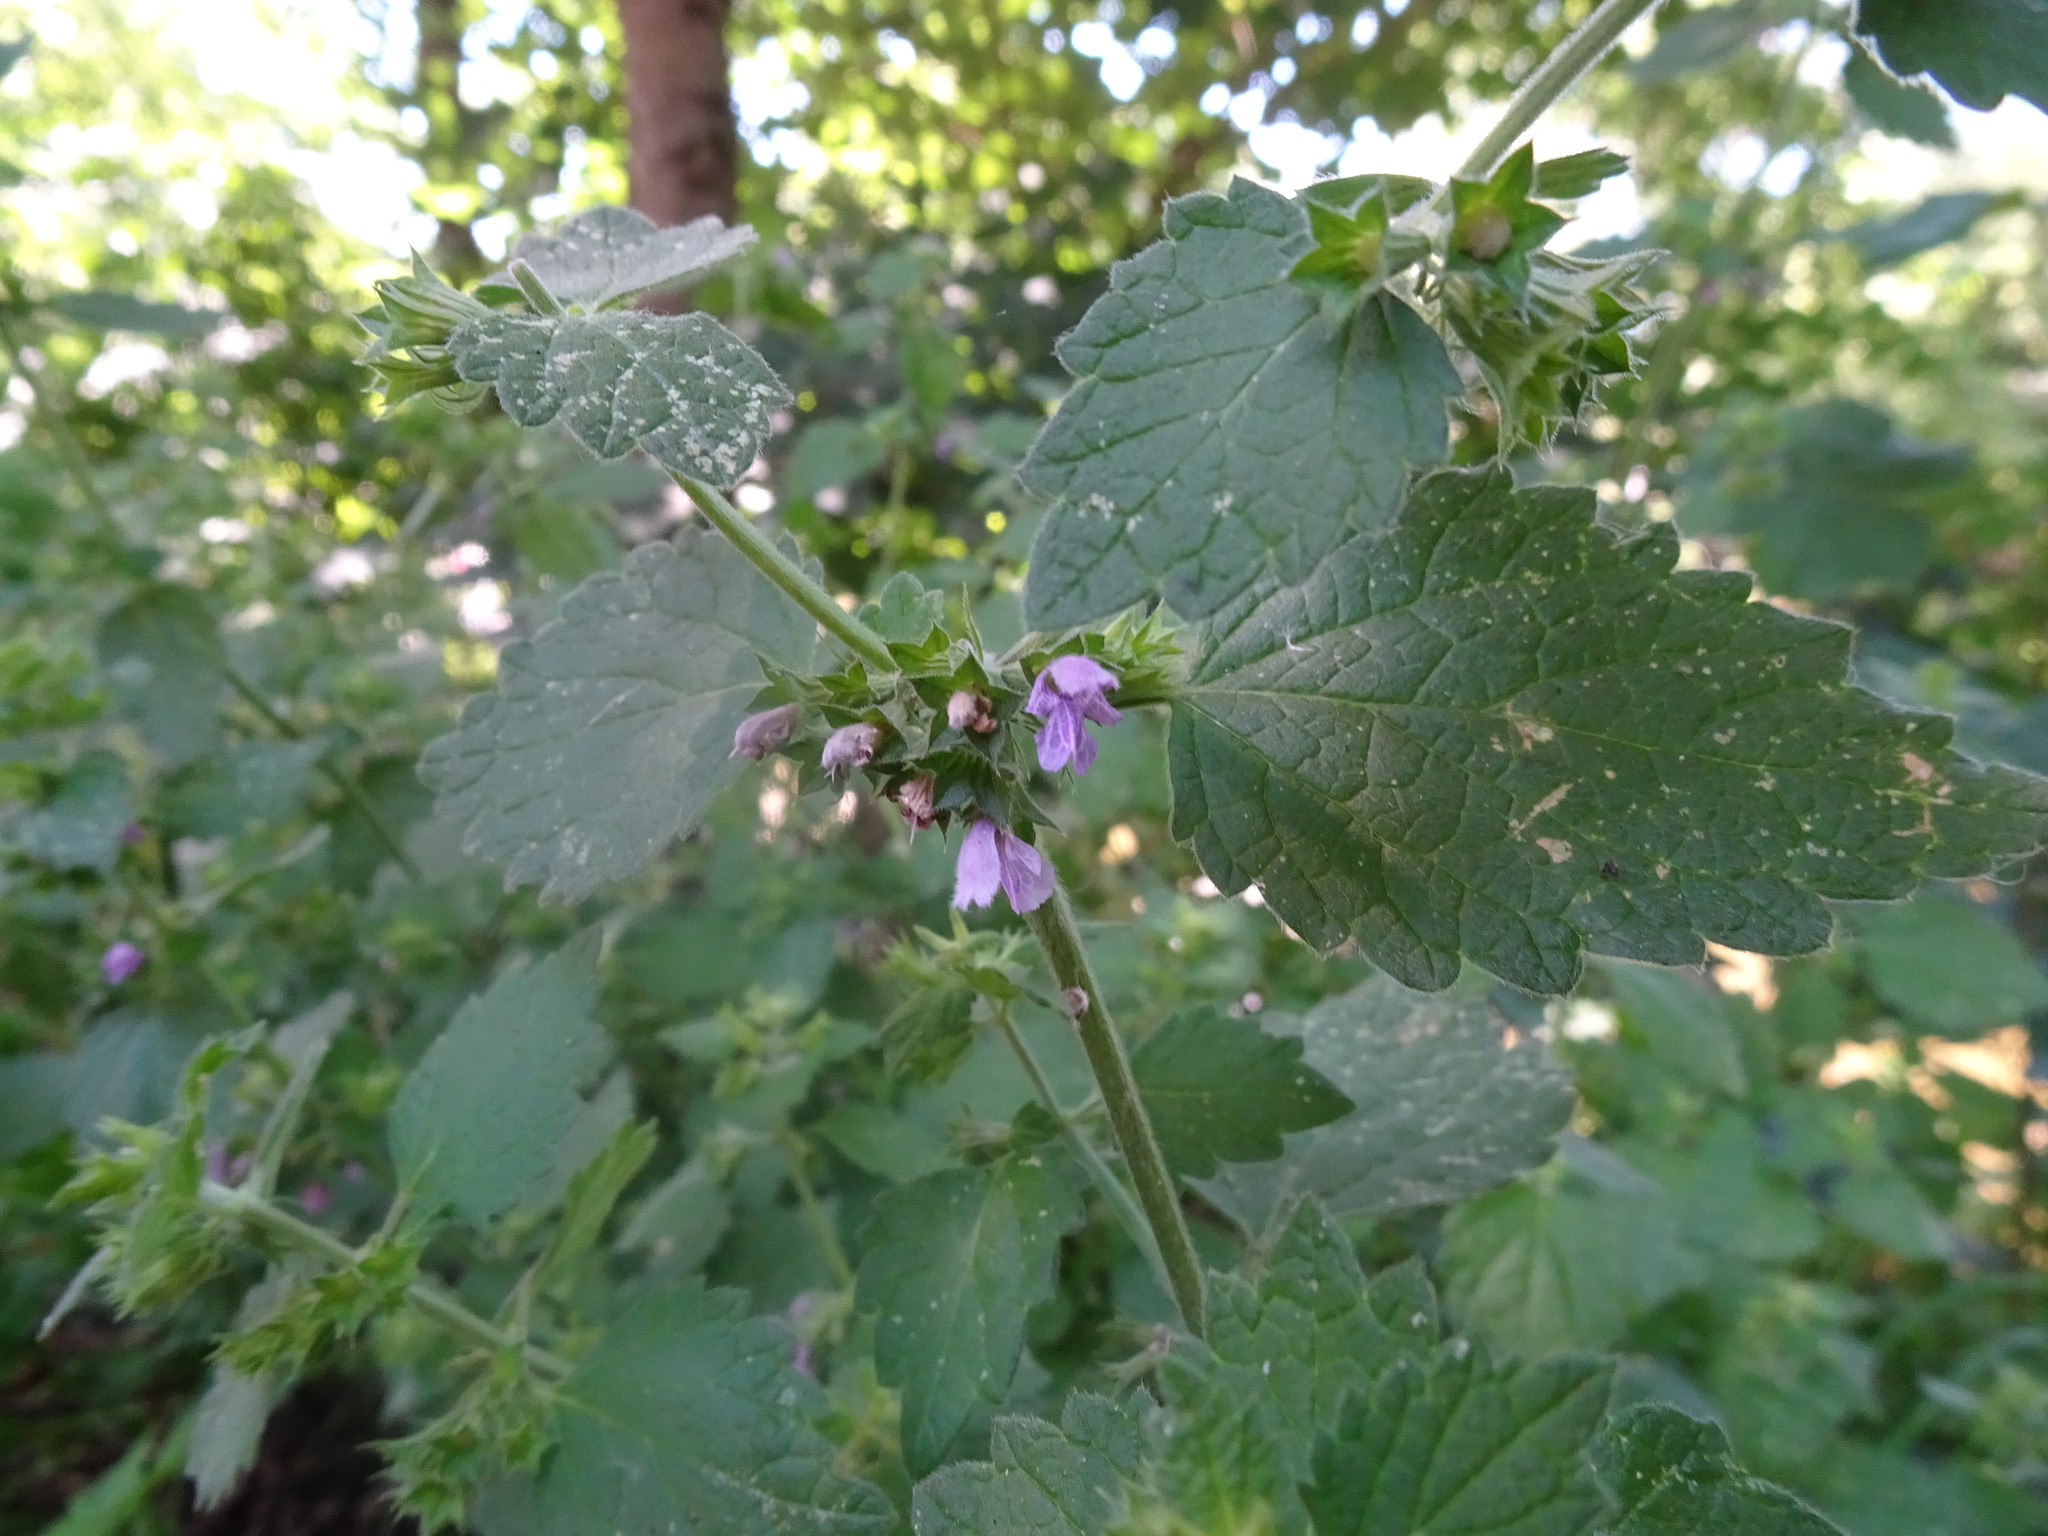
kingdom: Plantae
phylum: Tracheophyta
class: Magnoliopsida
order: Lamiales
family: Lamiaceae
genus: Ballota
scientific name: Ballota nigra
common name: Black horehound
